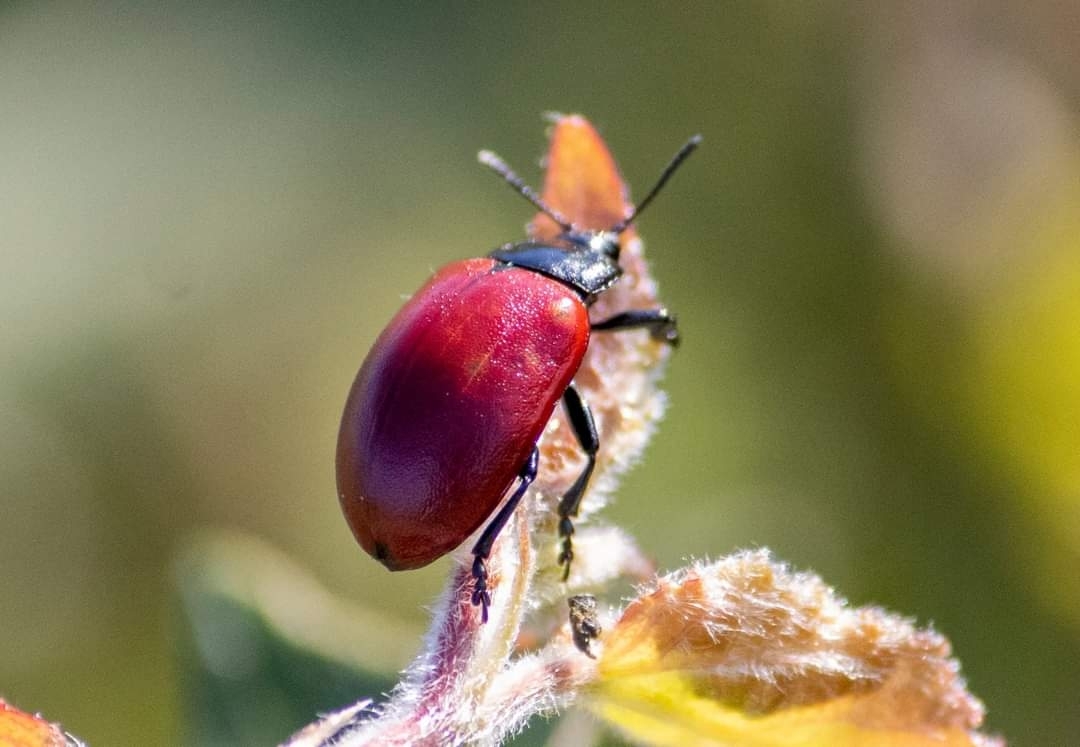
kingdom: Animalia
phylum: Arthropoda
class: Insecta
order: Coleoptera
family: Chrysomelidae
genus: Chrysomela
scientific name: Chrysomela populi
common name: Red poplar leaf beetle
